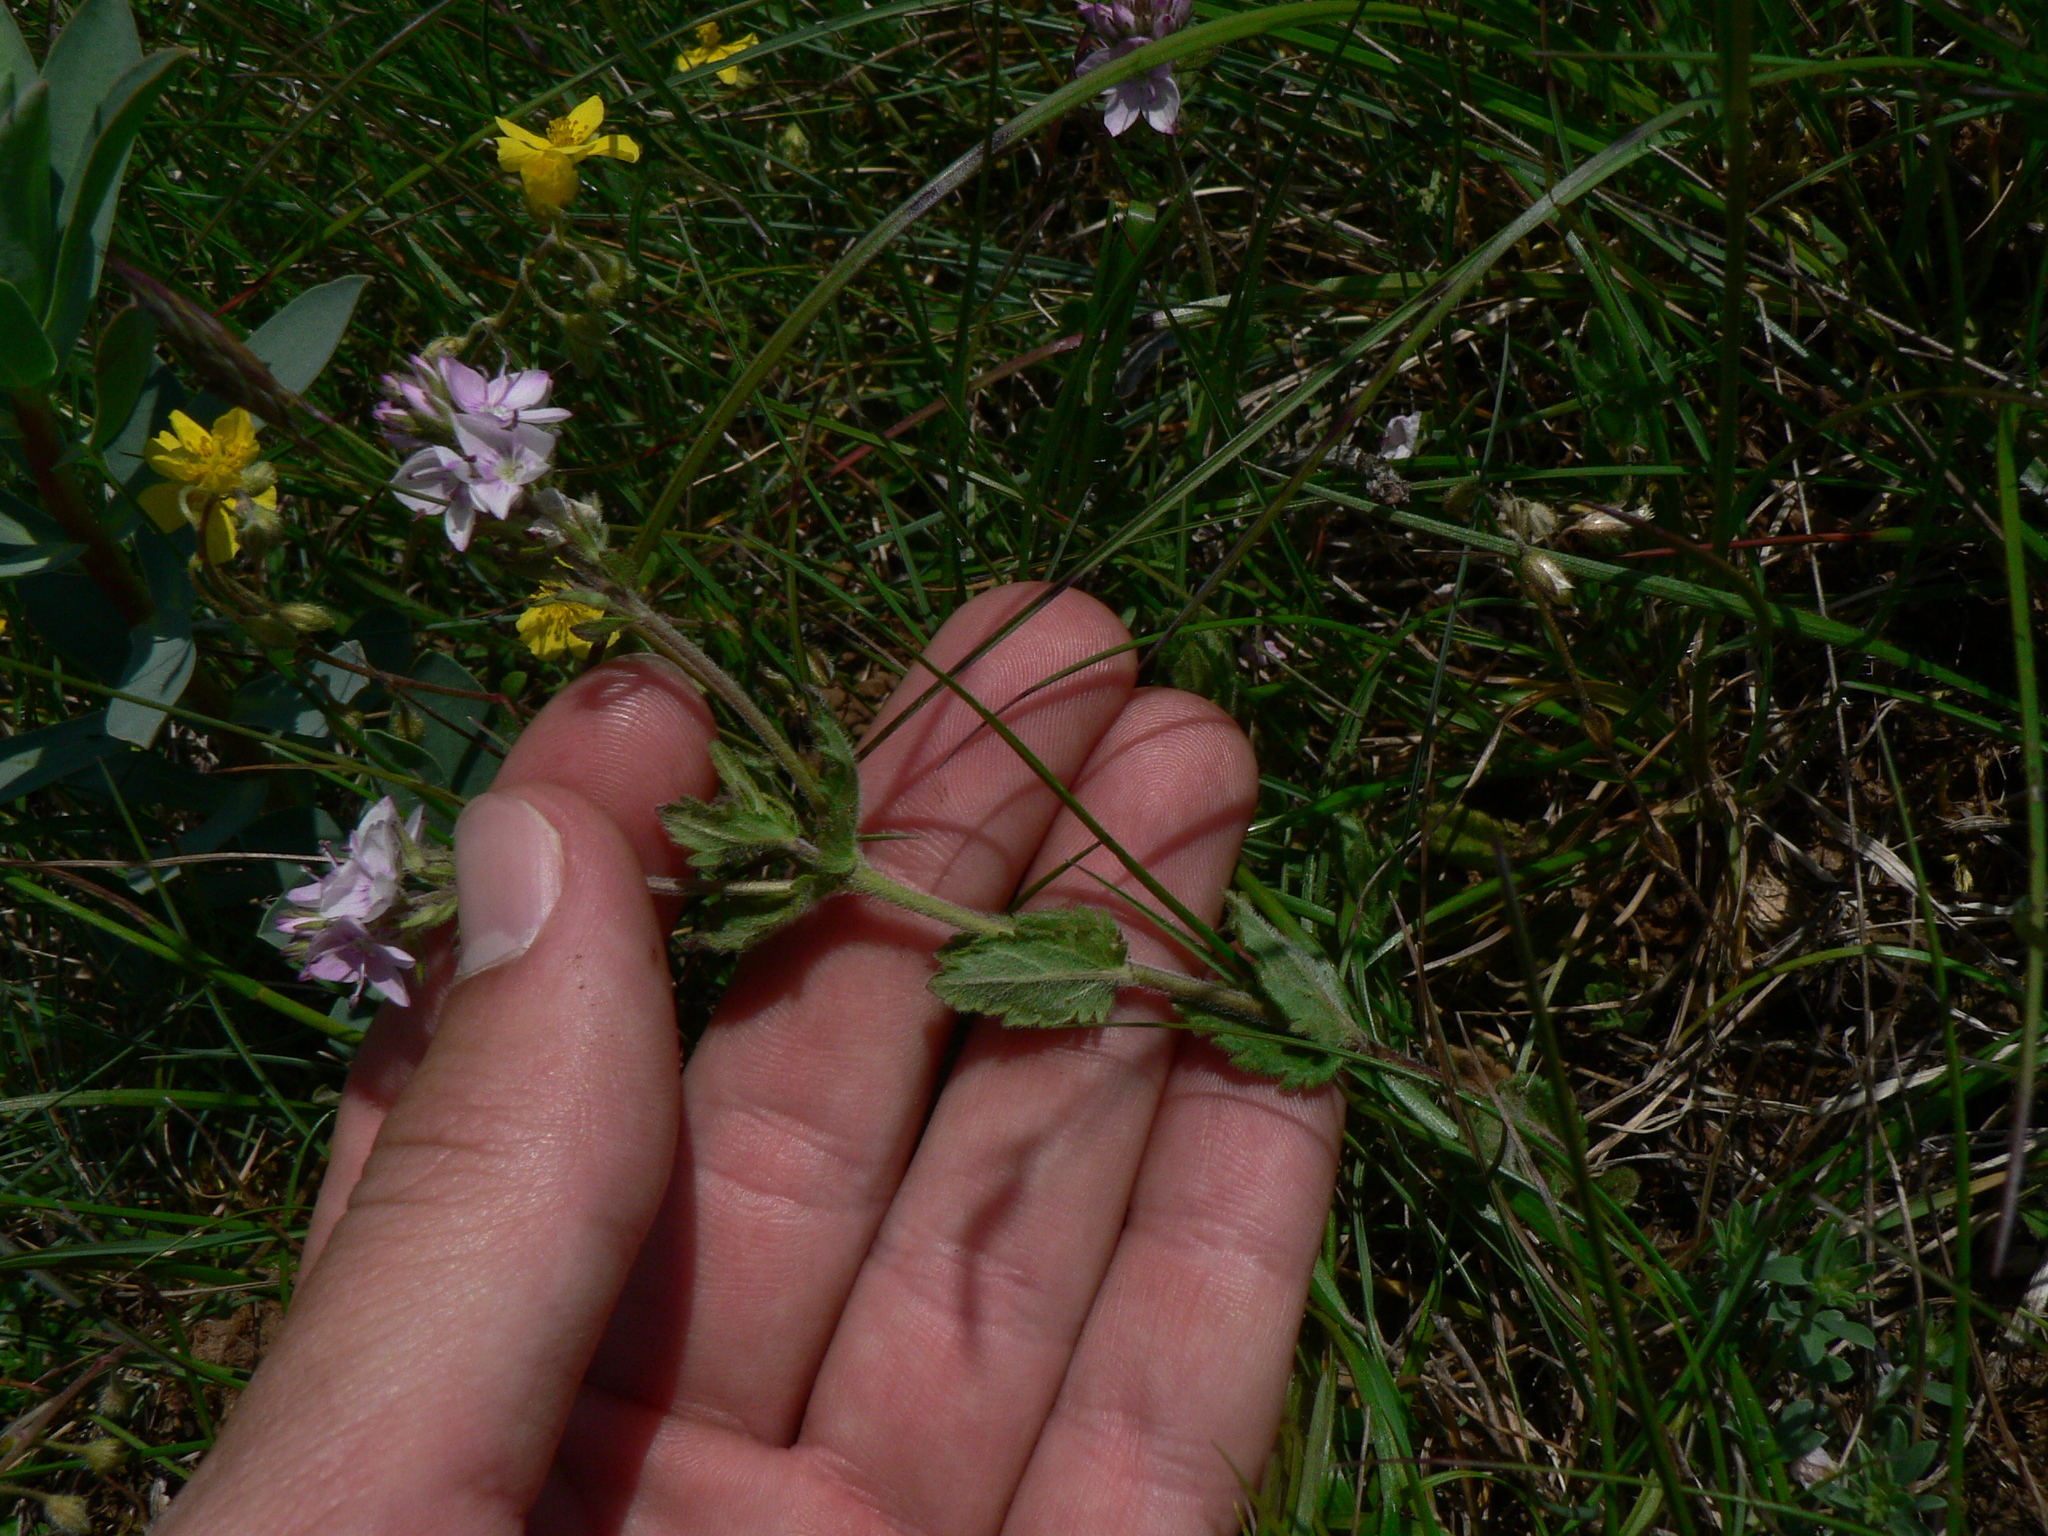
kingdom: Plantae
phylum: Tracheophyta
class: Magnoliopsida
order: Lamiales
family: Plantaginaceae
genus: Veronica
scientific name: Veronica orsiniana
